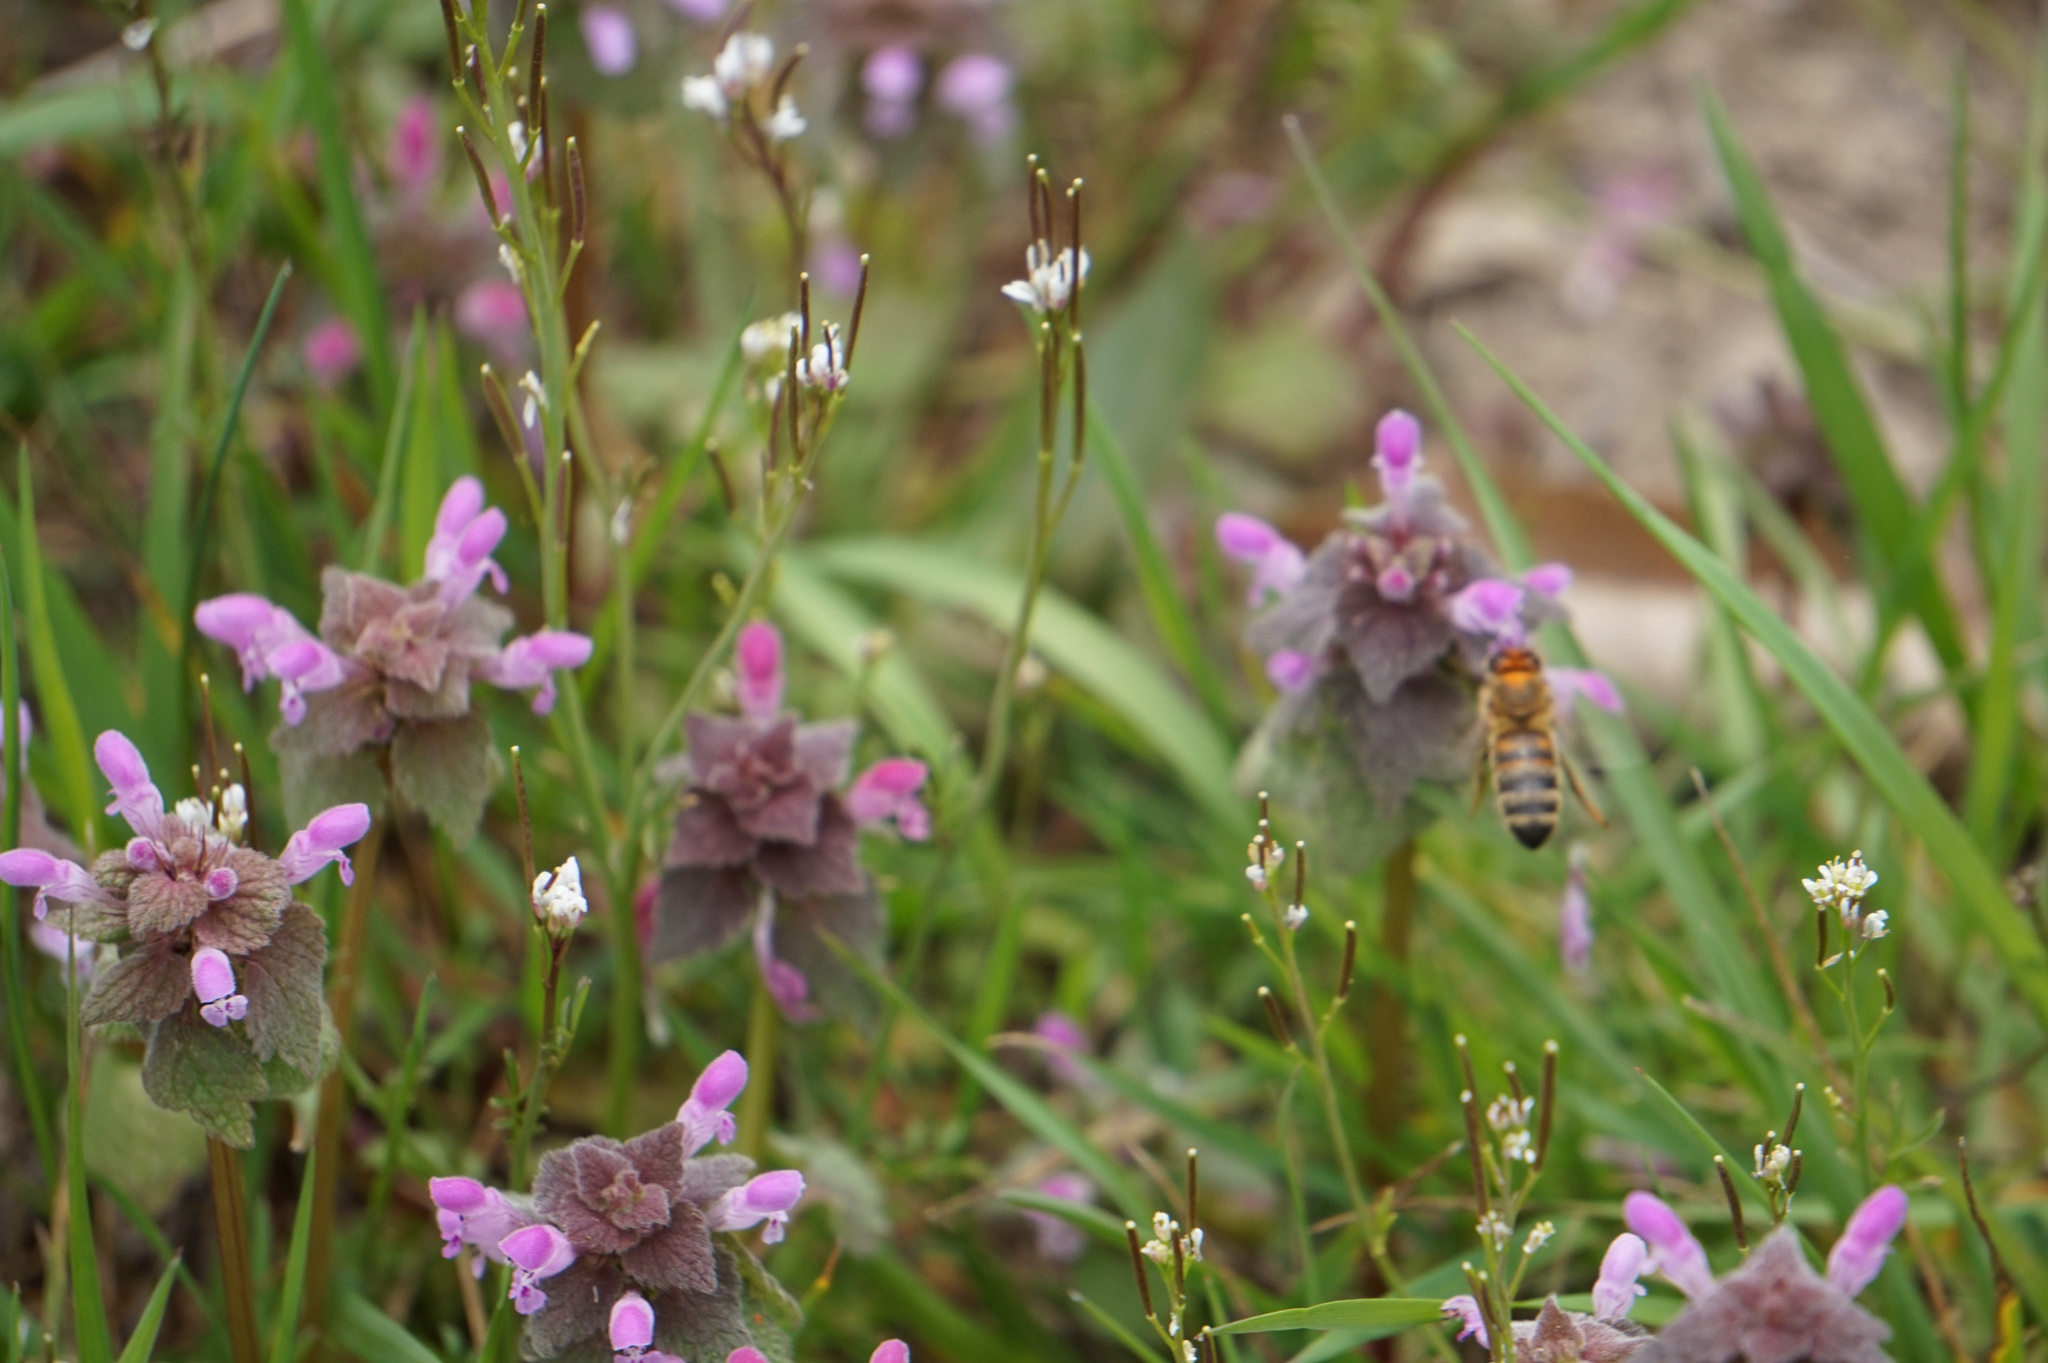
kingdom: Animalia
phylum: Arthropoda
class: Insecta
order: Hymenoptera
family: Apidae
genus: Apis
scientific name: Apis mellifera
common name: Honey bee
